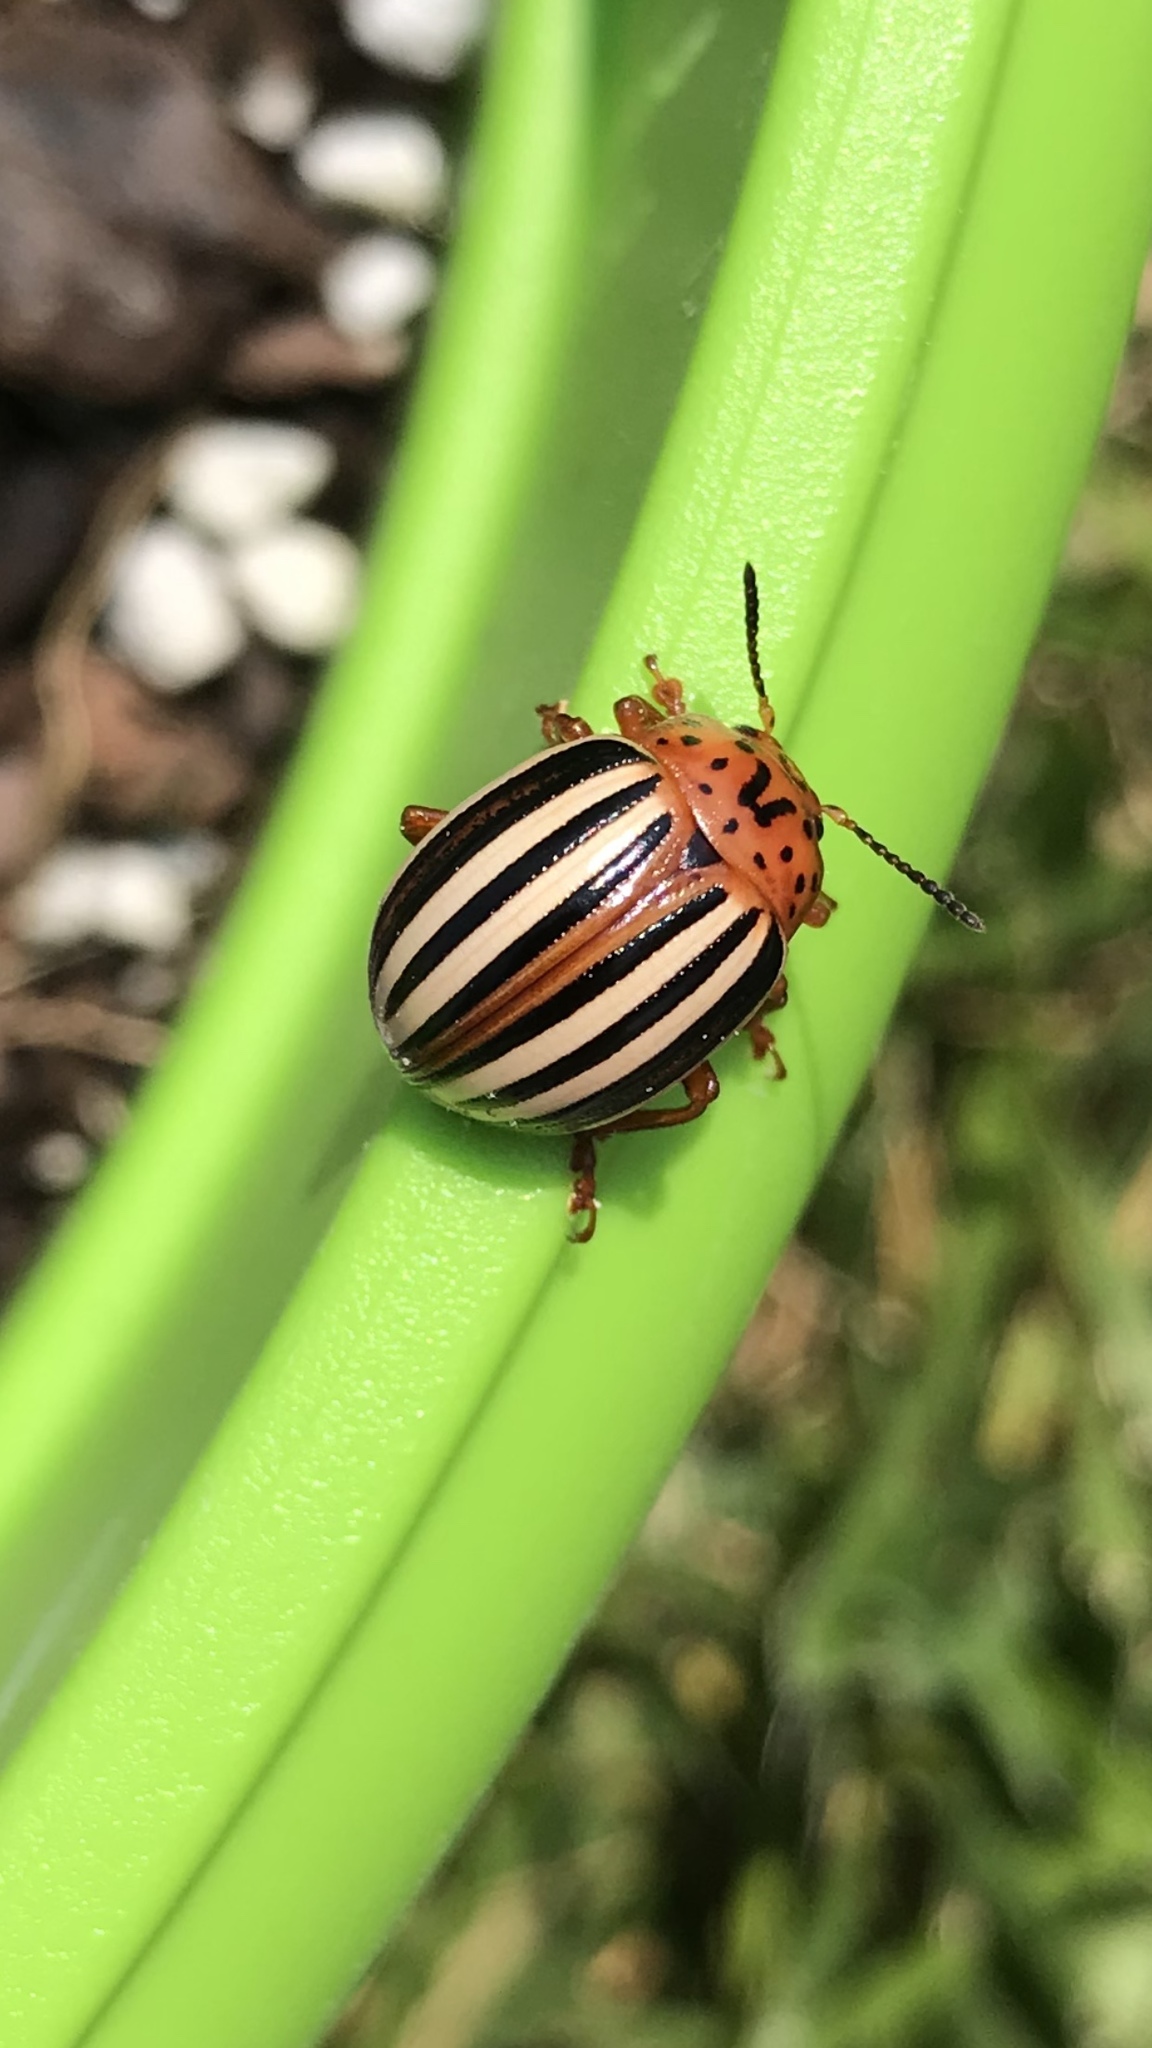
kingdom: Animalia
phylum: Arthropoda
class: Insecta
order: Coleoptera
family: Chrysomelidae
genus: Leptinotarsa
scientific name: Leptinotarsa juncta
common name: False potato beetle
